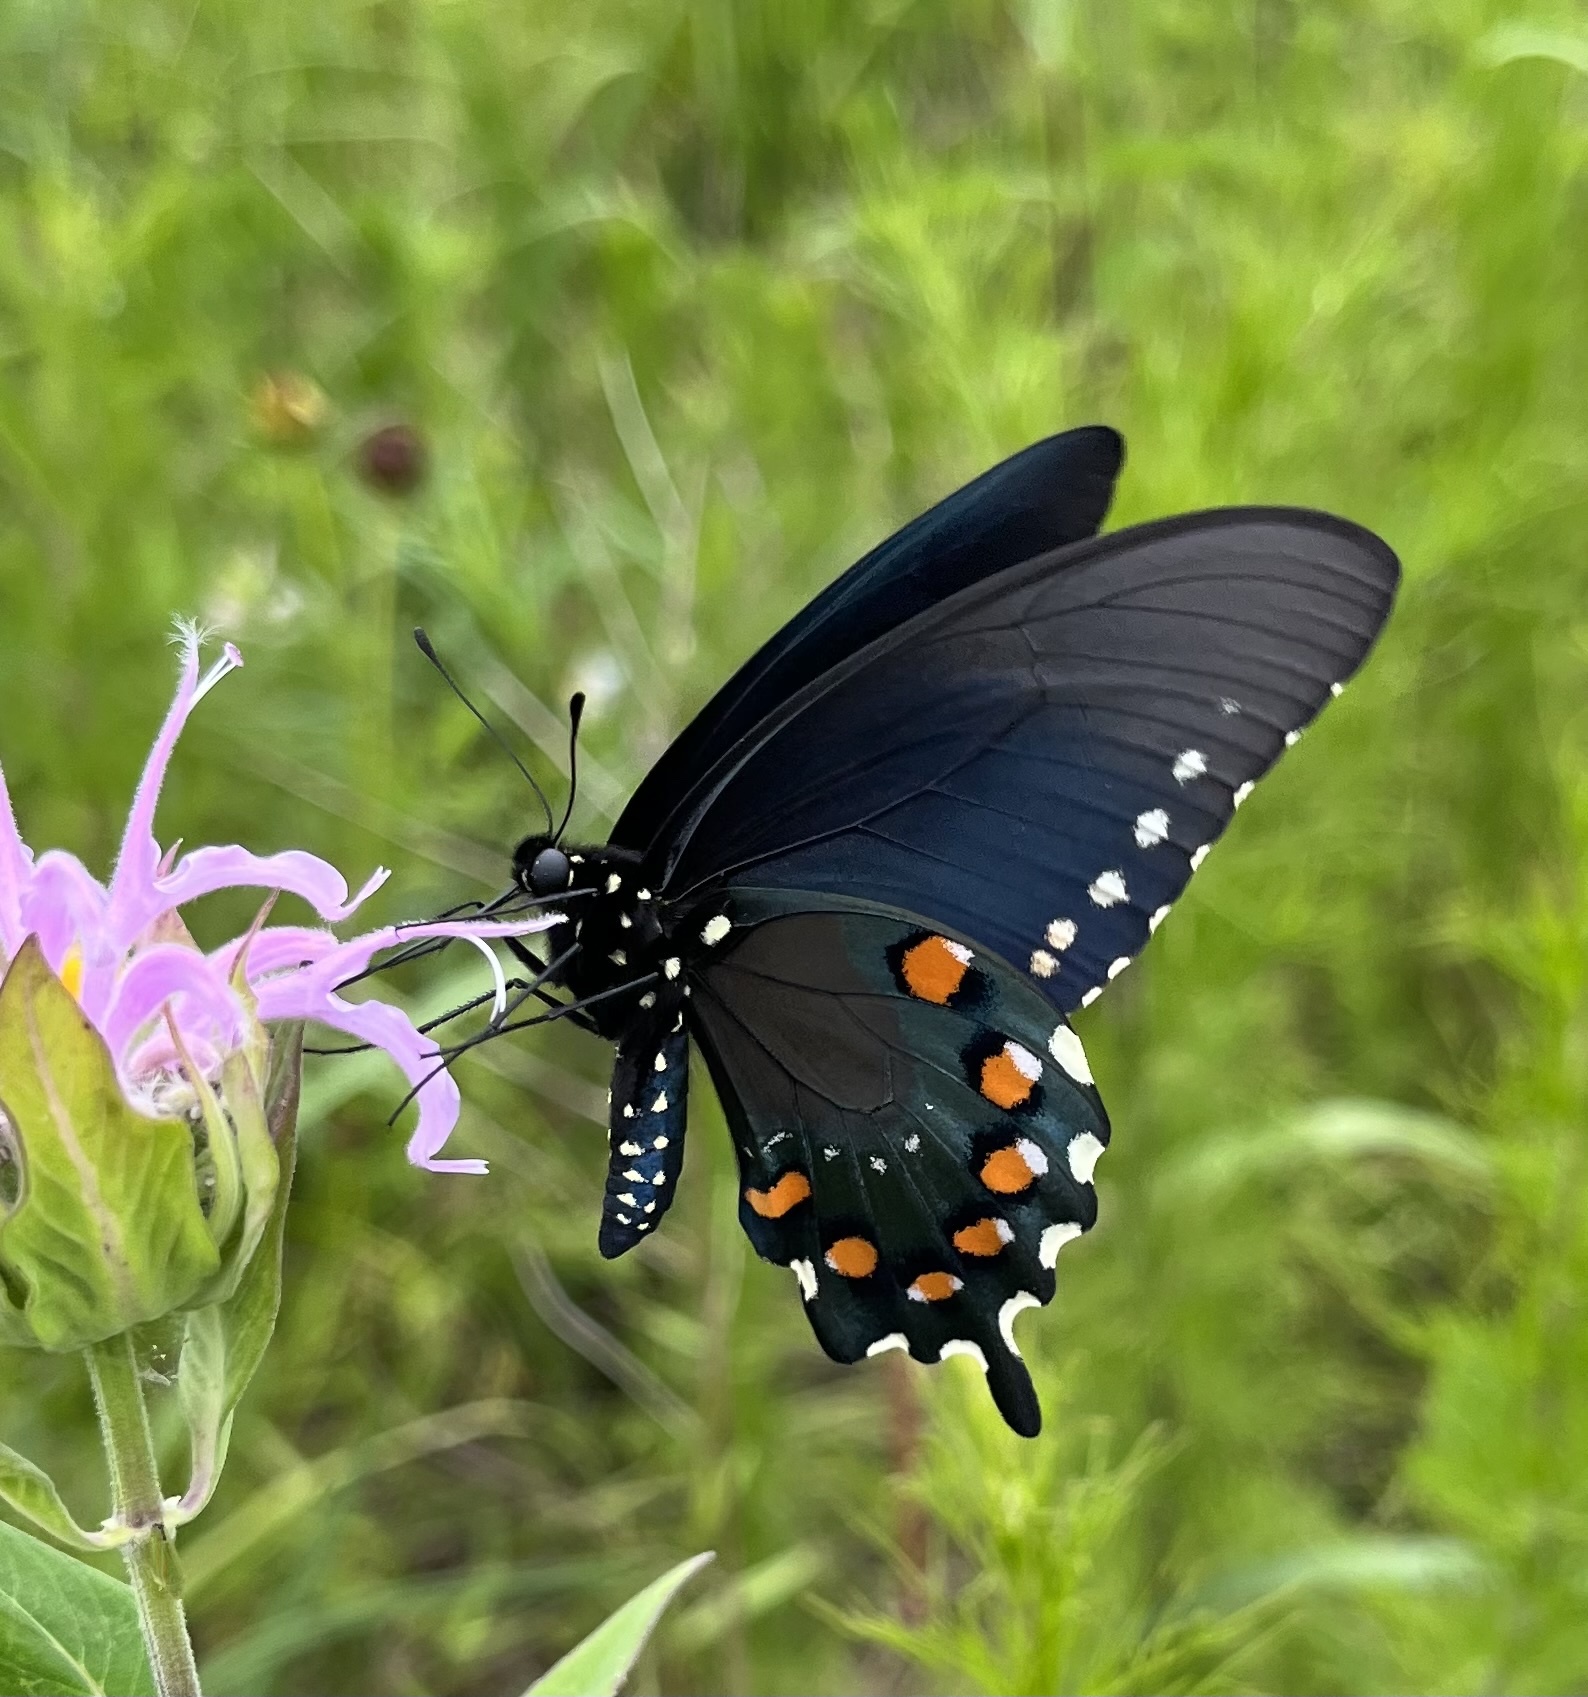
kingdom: Animalia
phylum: Arthropoda
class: Insecta
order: Lepidoptera
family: Papilionidae
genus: Battus
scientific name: Battus philenor
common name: Pipevine swallowtail
